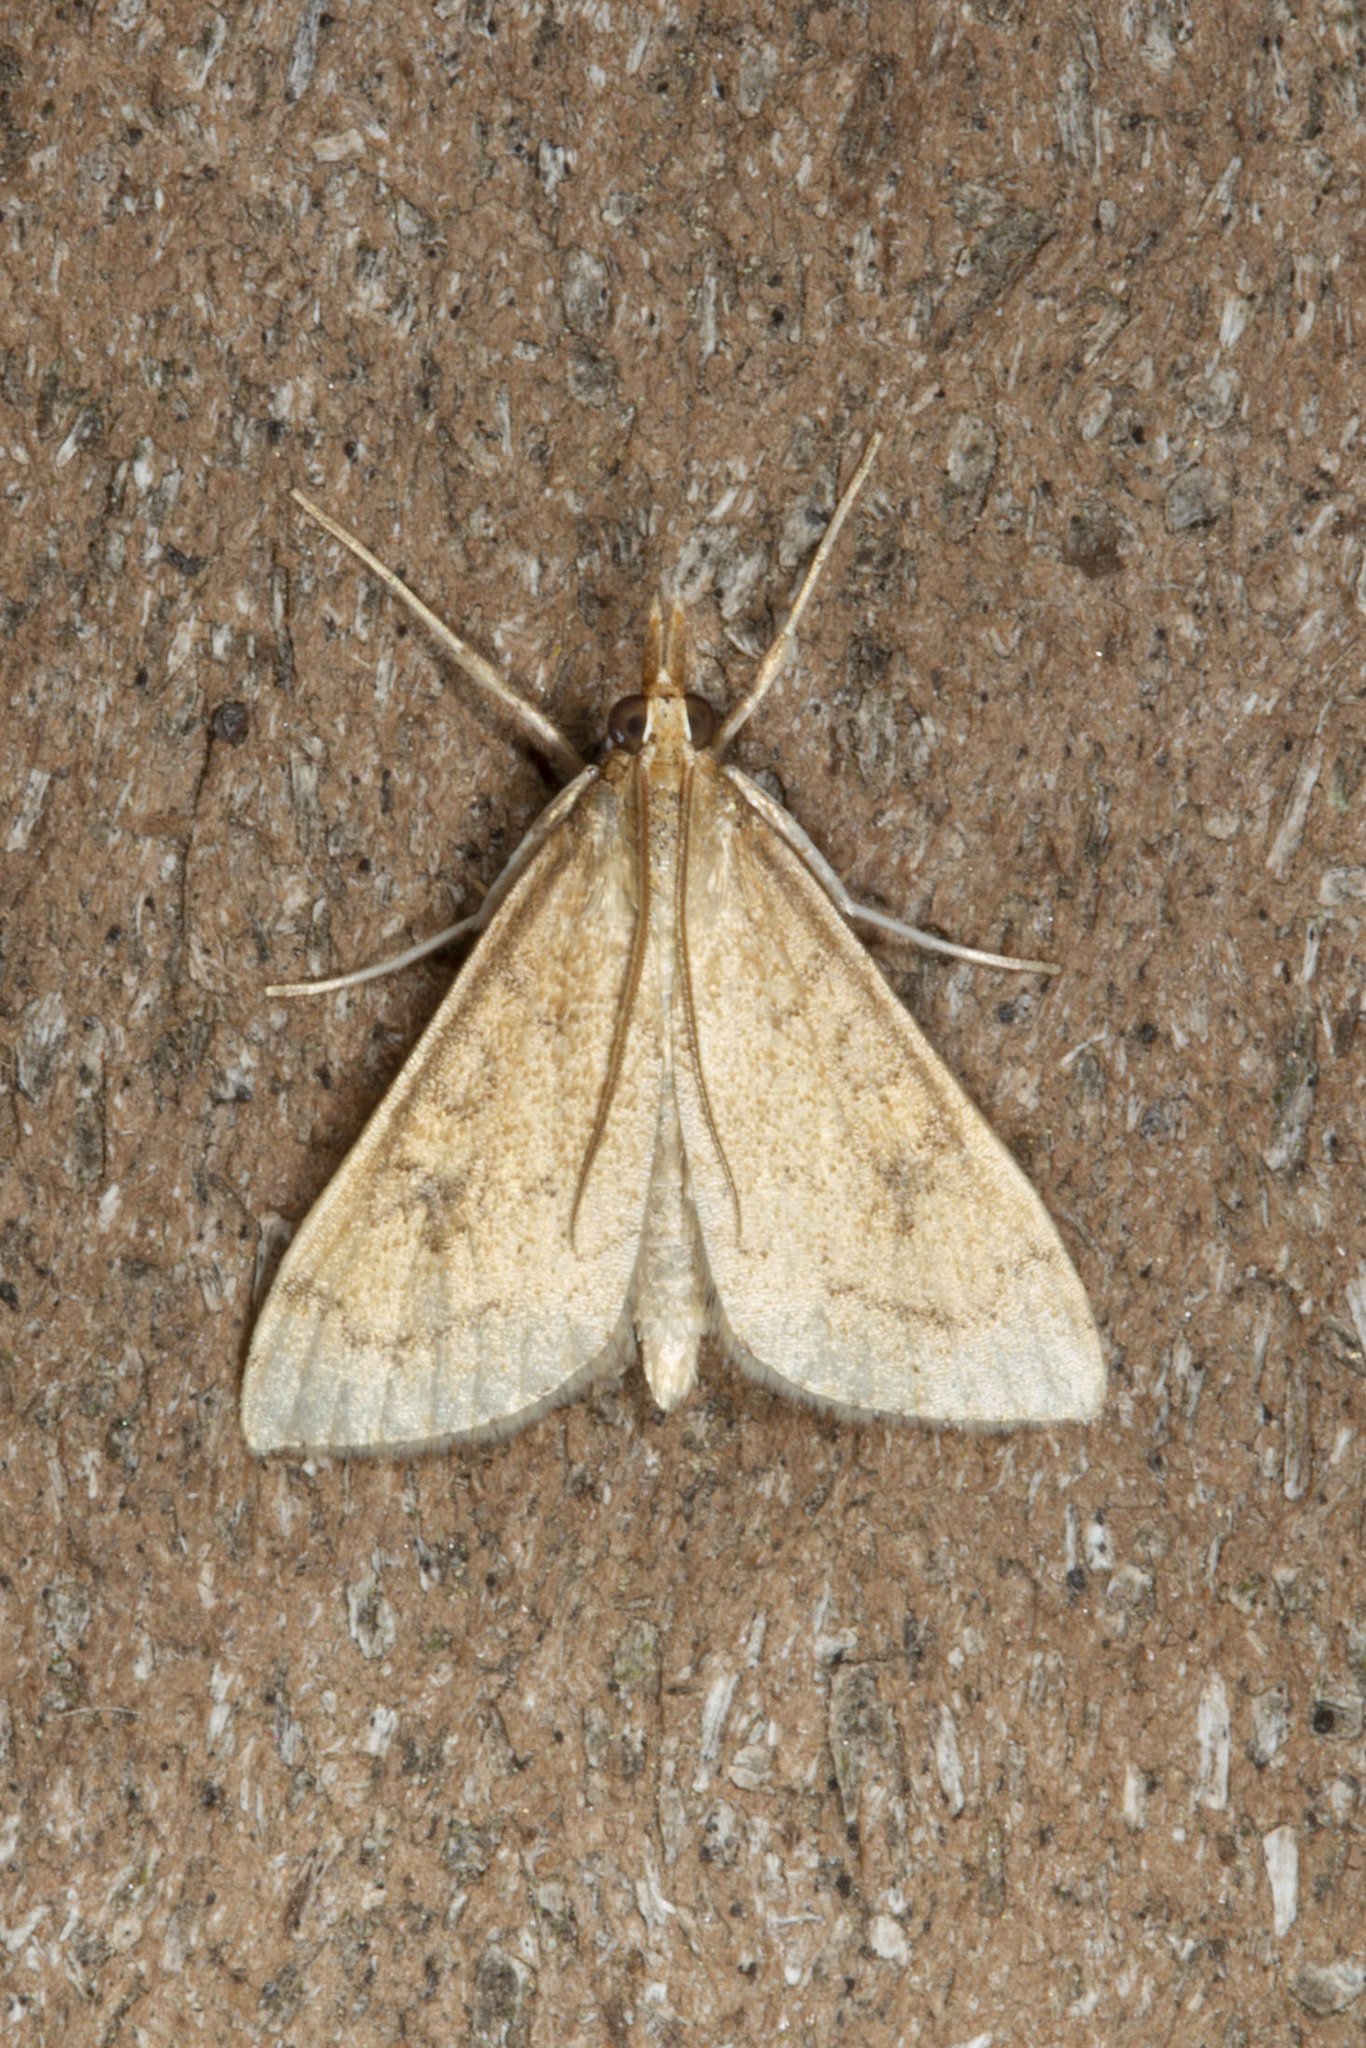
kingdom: Animalia
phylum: Arthropoda
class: Insecta
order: Lepidoptera
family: Crambidae
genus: Udea
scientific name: Udea rubigalis
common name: Celery leaftier moth
